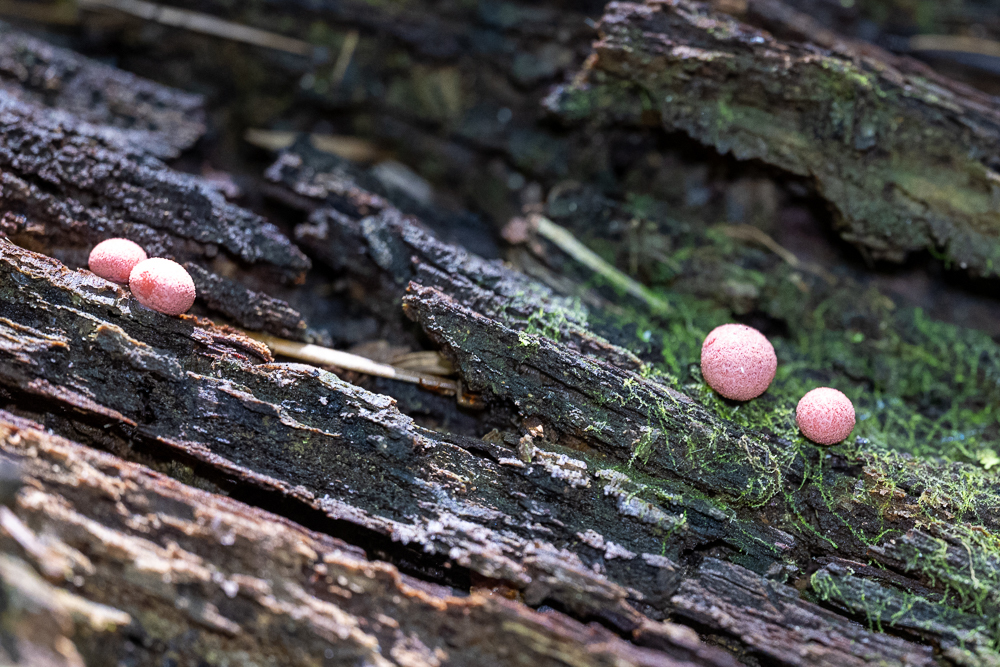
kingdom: Protozoa
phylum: Mycetozoa
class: Myxomycetes
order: Cribrariales
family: Tubiferaceae
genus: Lycogala
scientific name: Lycogala epidendrum
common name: Wolf's milk
